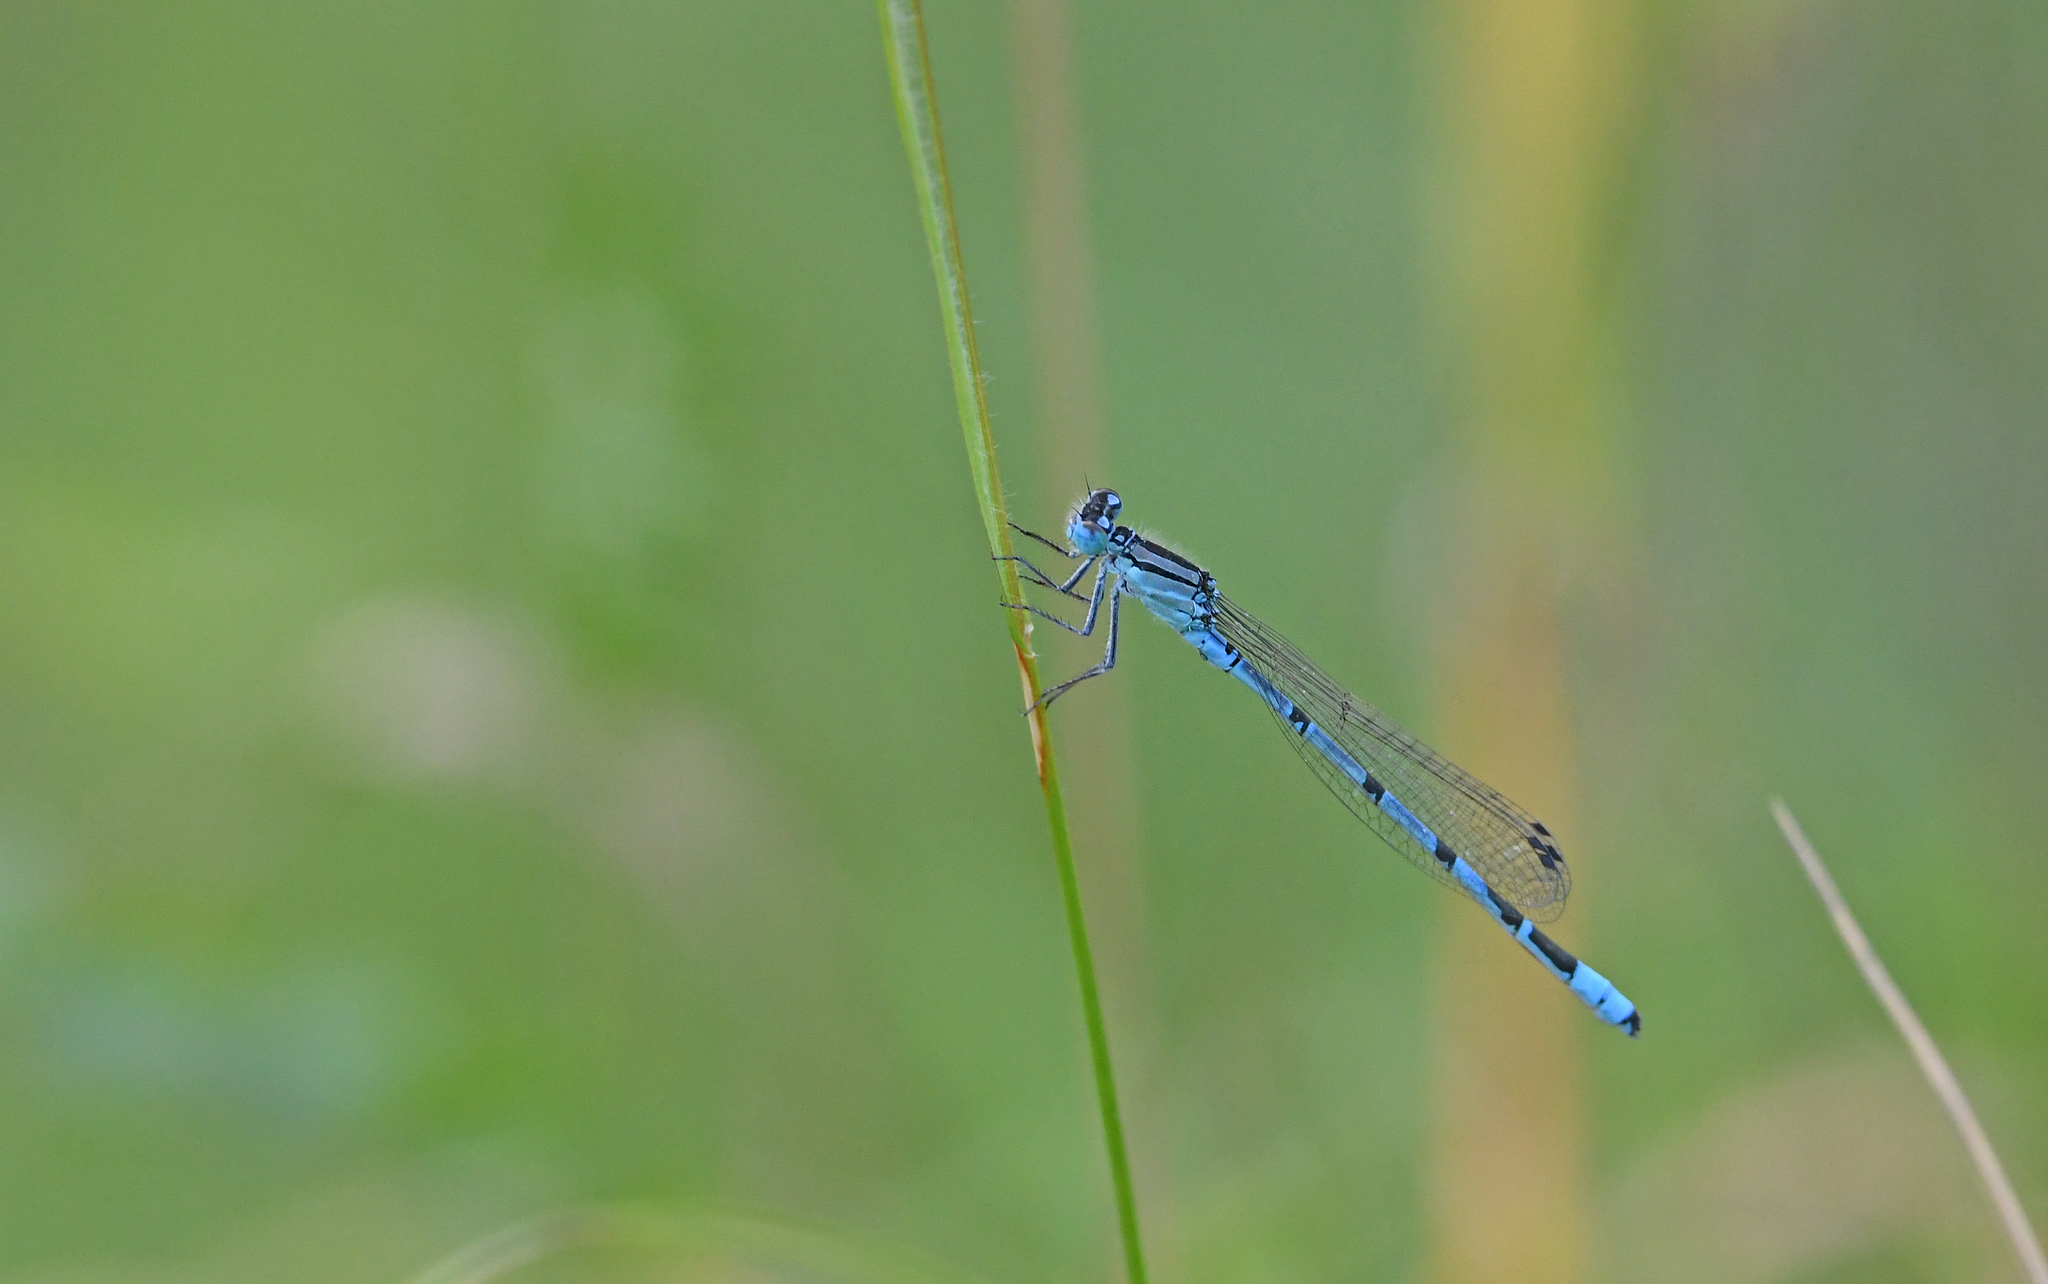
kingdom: Animalia
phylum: Arthropoda
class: Insecta
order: Odonata
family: Coenagrionidae
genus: Enallagma
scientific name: Enallagma cyathigerum
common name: Common blue damselfly
